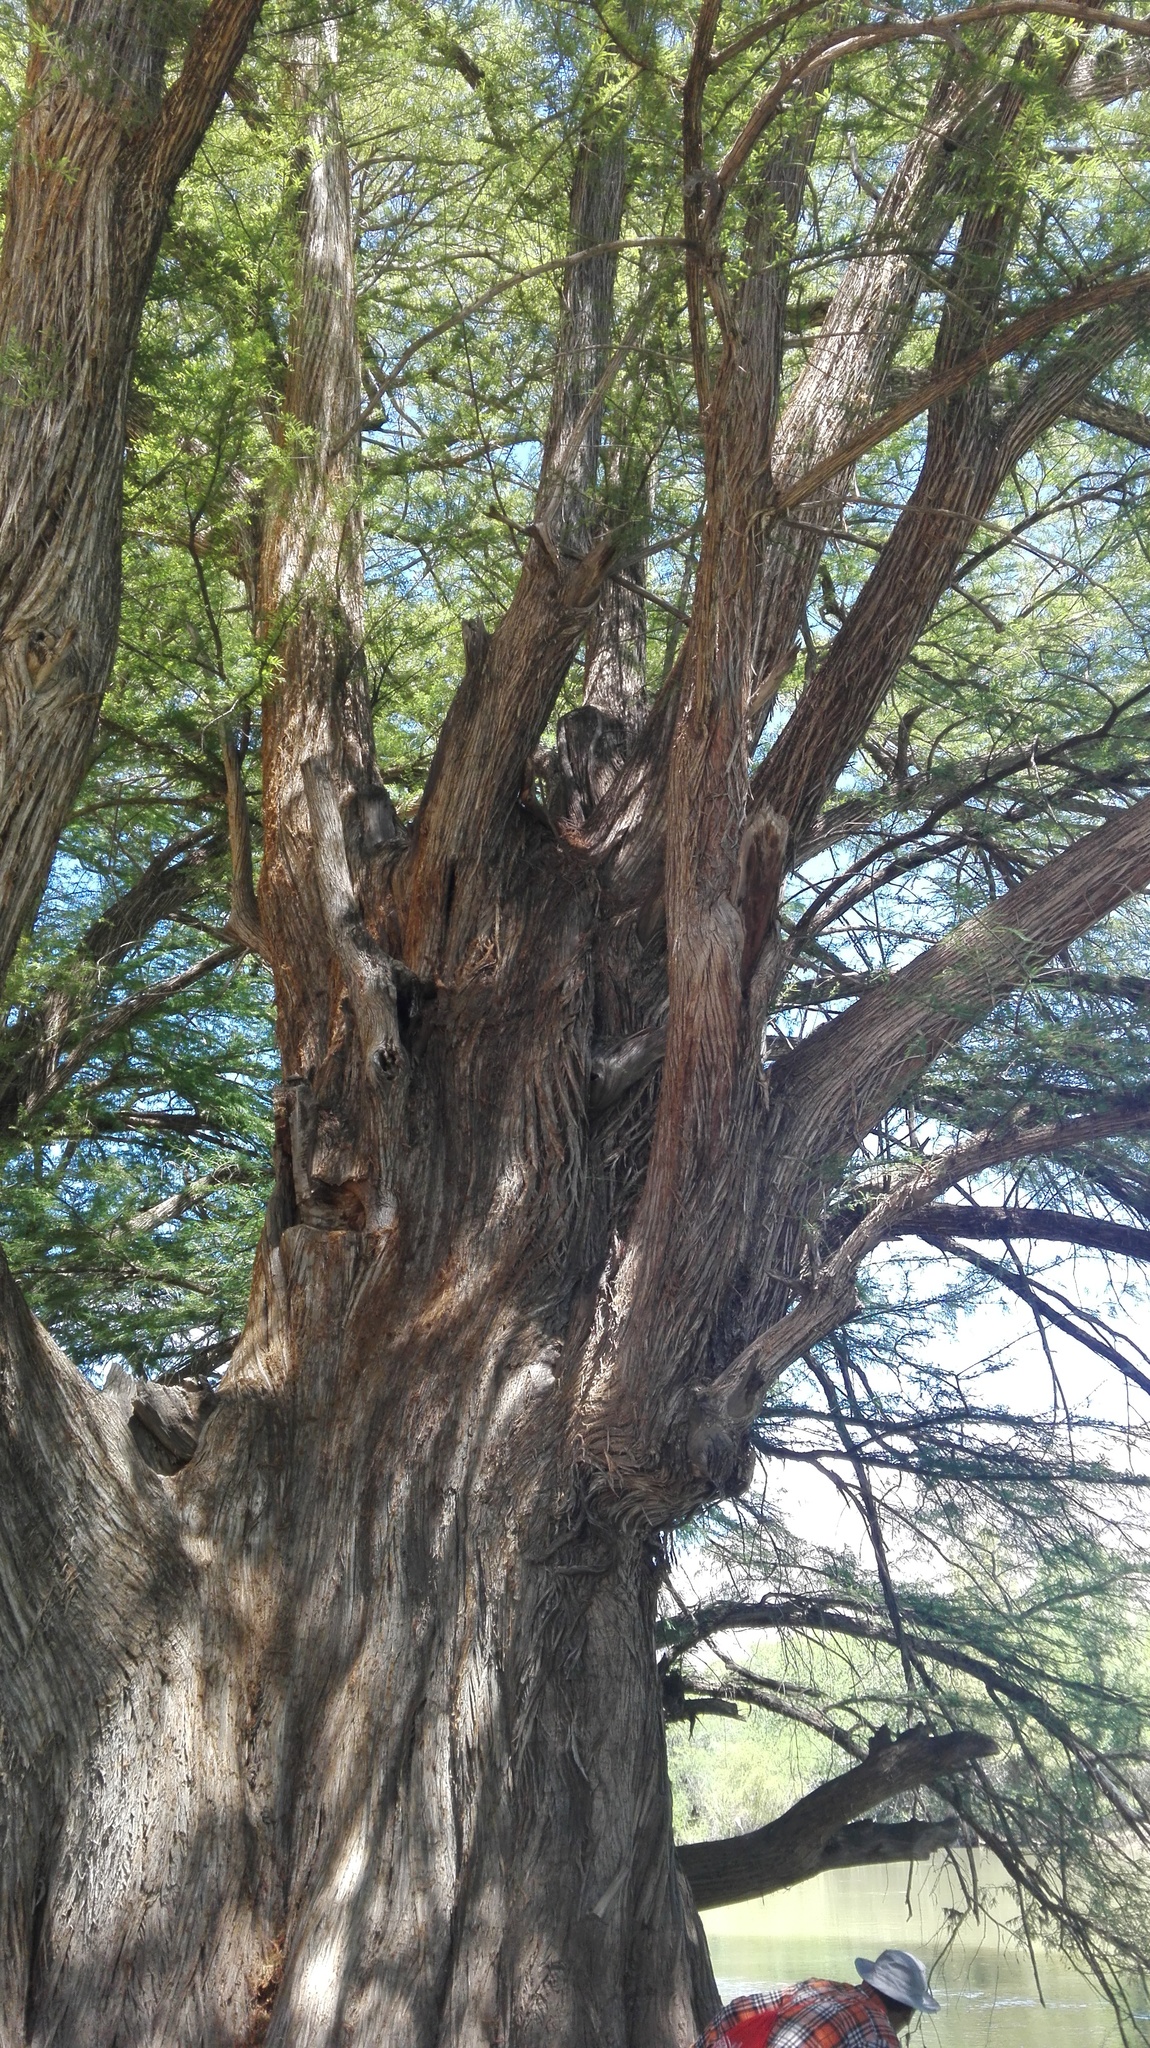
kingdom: Plantae
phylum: Tracheophyta
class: Pinopsida
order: Pinales
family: Cupressaceae
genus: Taxodium
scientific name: Taxodium mucronatum
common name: Montezume bald cypress
